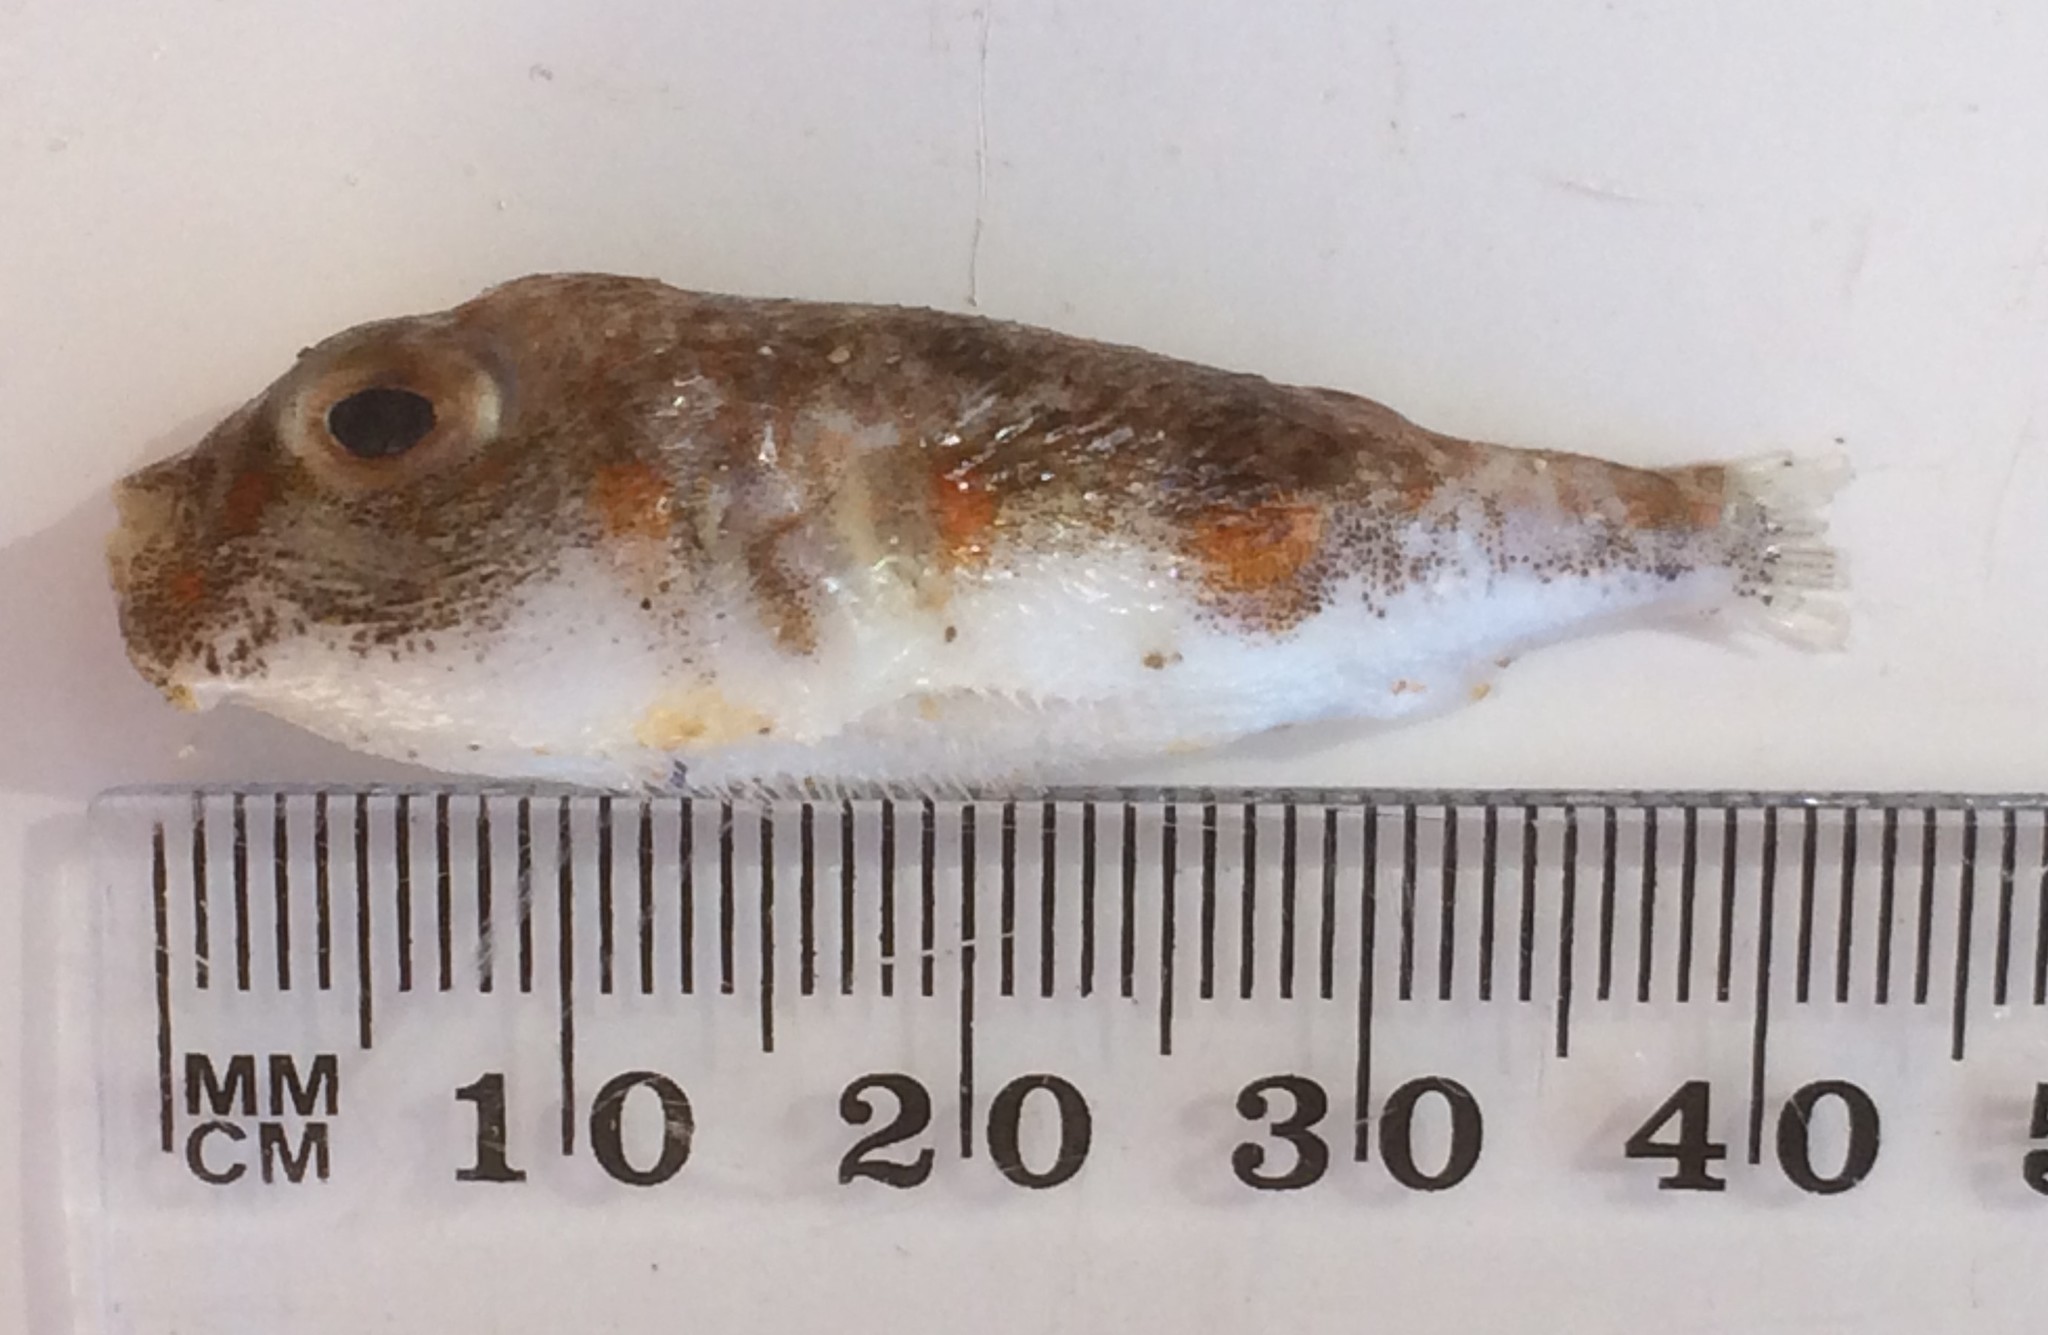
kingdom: Animalia
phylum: Chordata
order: Tetraodontiformes
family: Tetraodontidae
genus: Polyspina
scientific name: Polyspina piosae
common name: Orange-barred pufferfish
